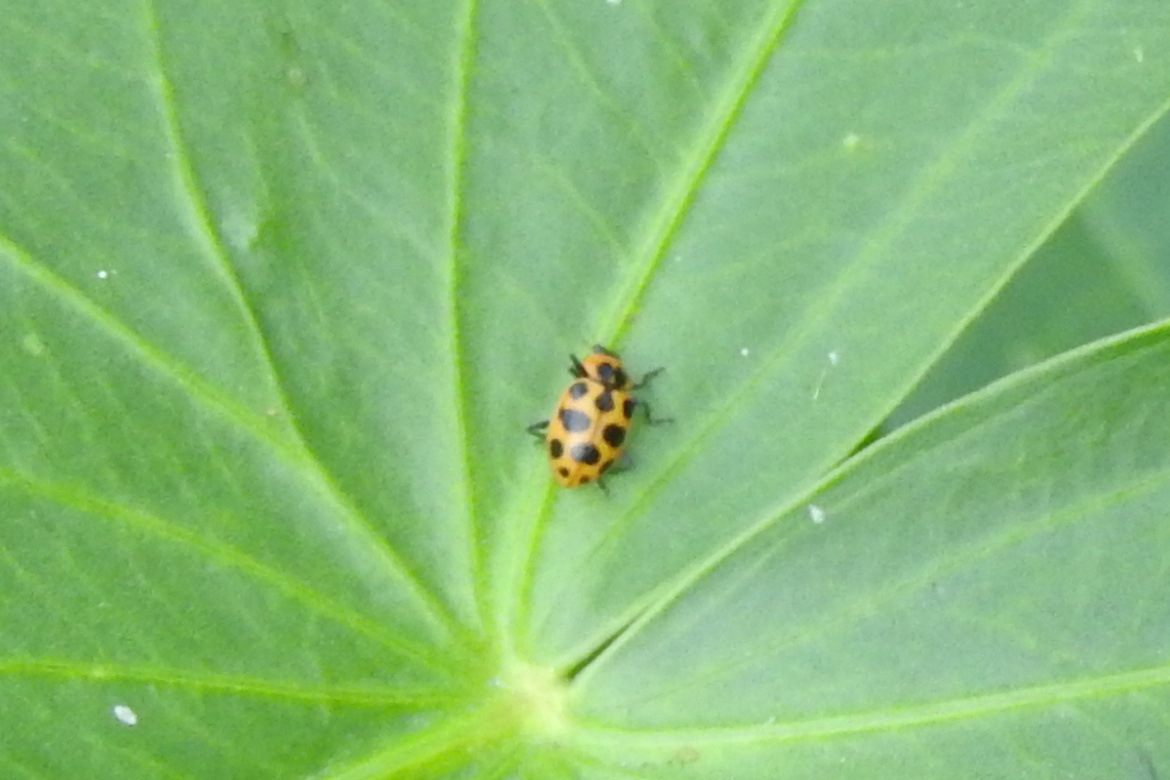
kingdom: Animalia
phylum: Arthropoda
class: Insecta
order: Coleoptera
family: Coccinellidae
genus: Coleomegilla
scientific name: Coleomegilla maculata
